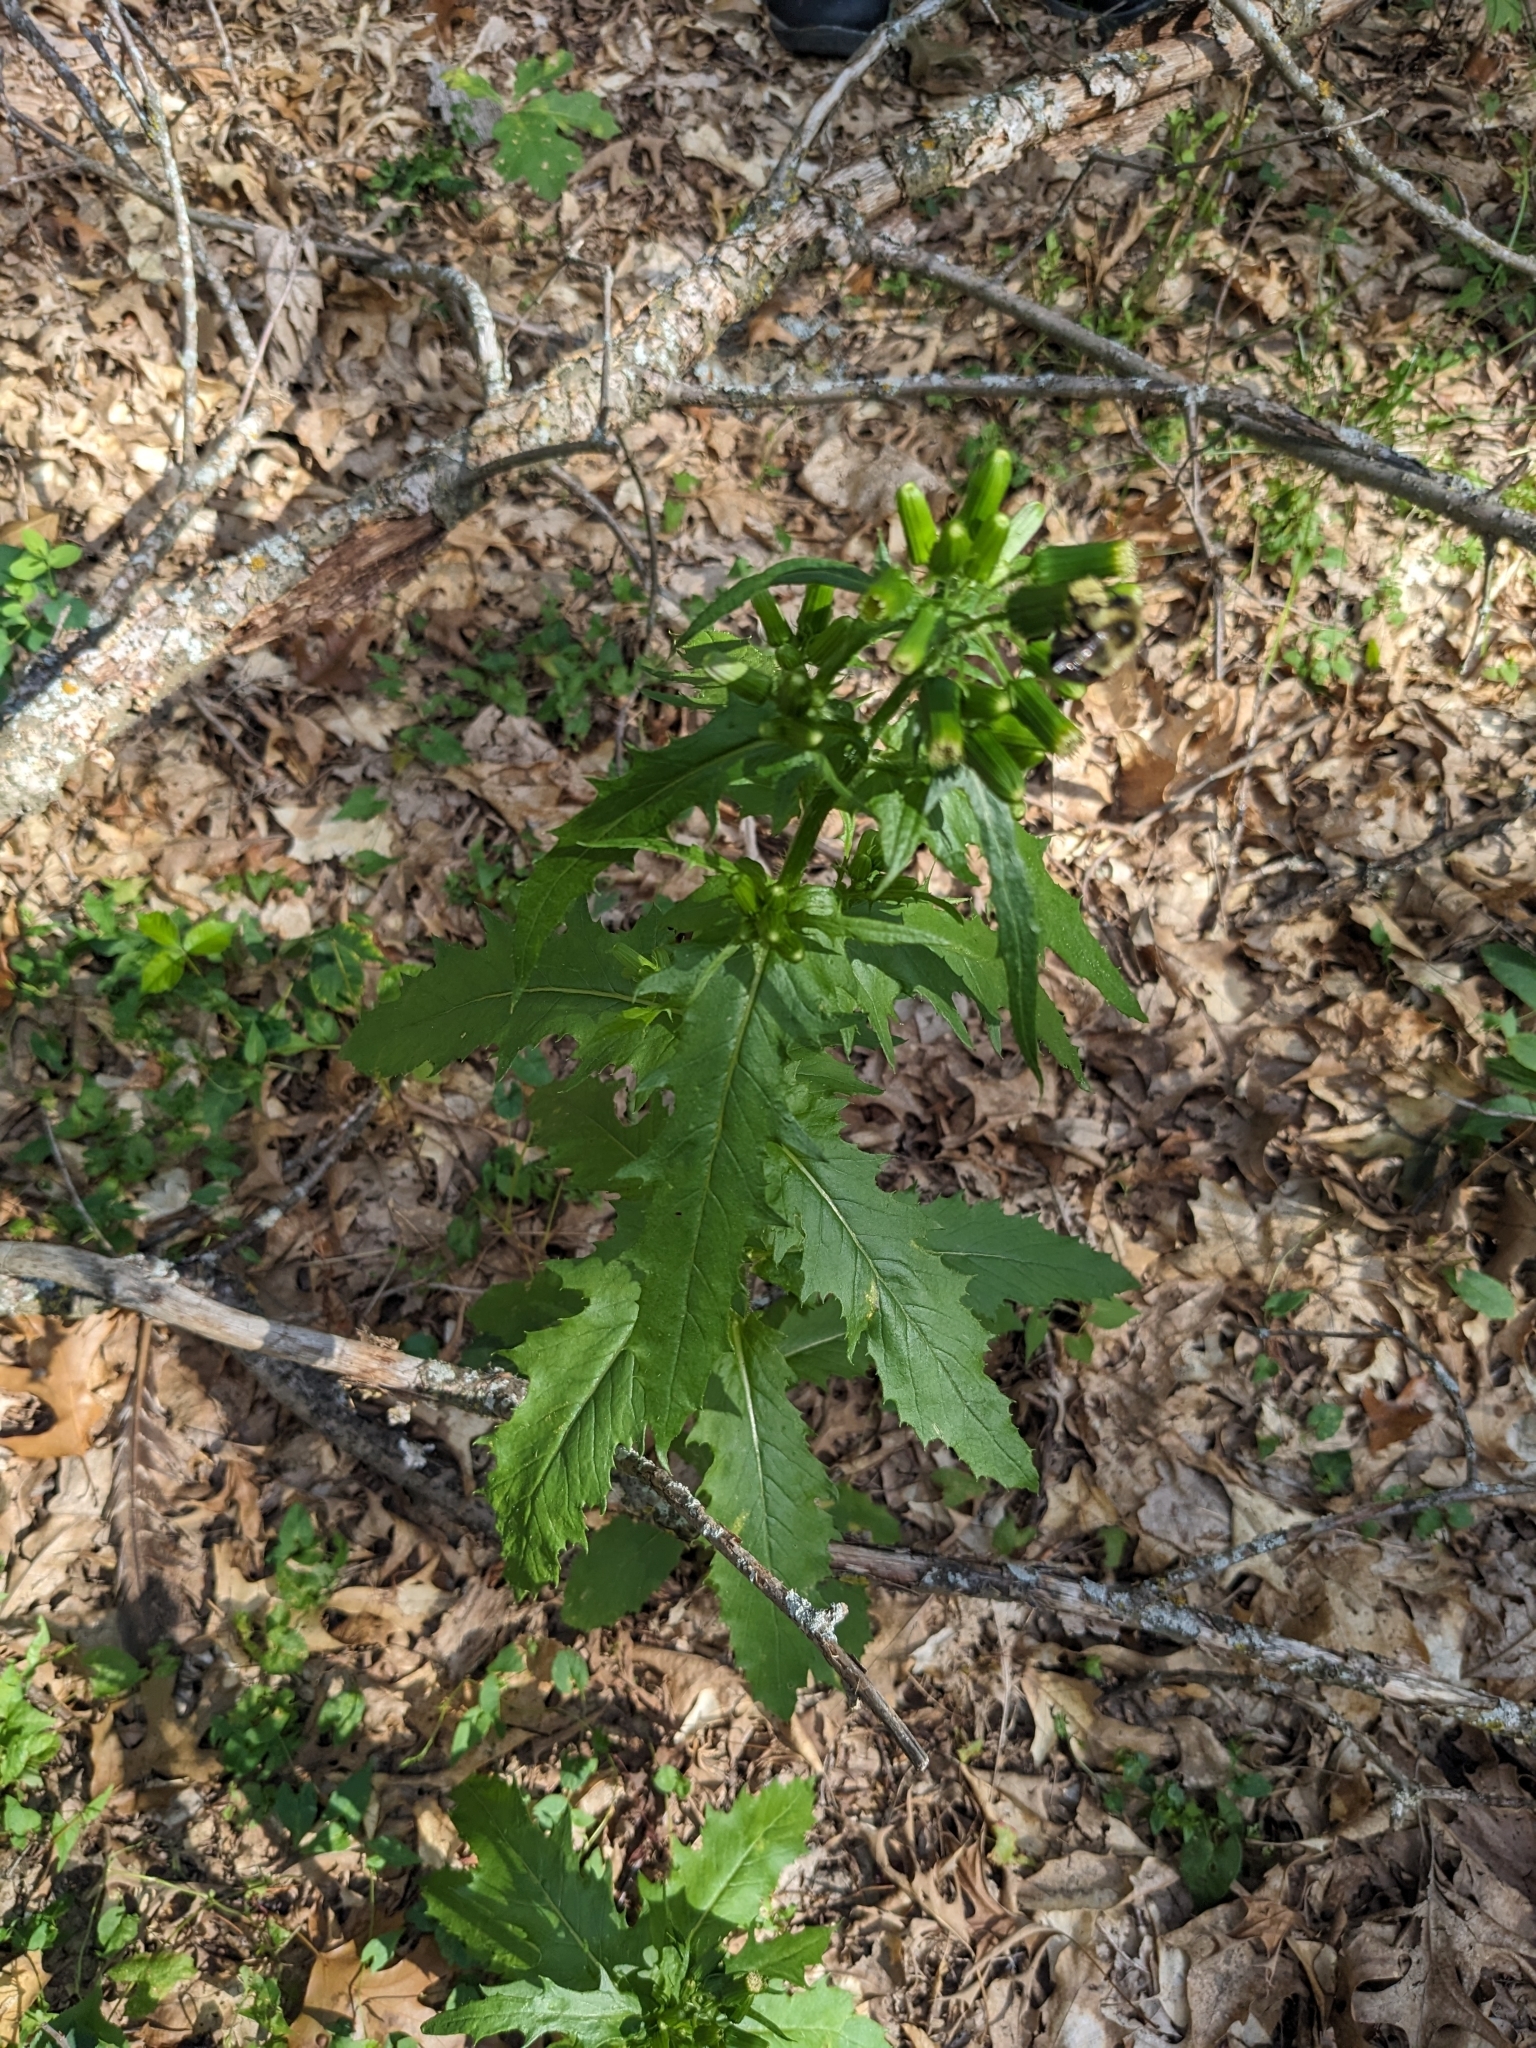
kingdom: Plantae
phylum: Tracheophyta
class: Magnoliopsida
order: Asterales
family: Asteraceae
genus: Erechtites
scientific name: Erechtites hieraciifolius
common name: American burnweed
